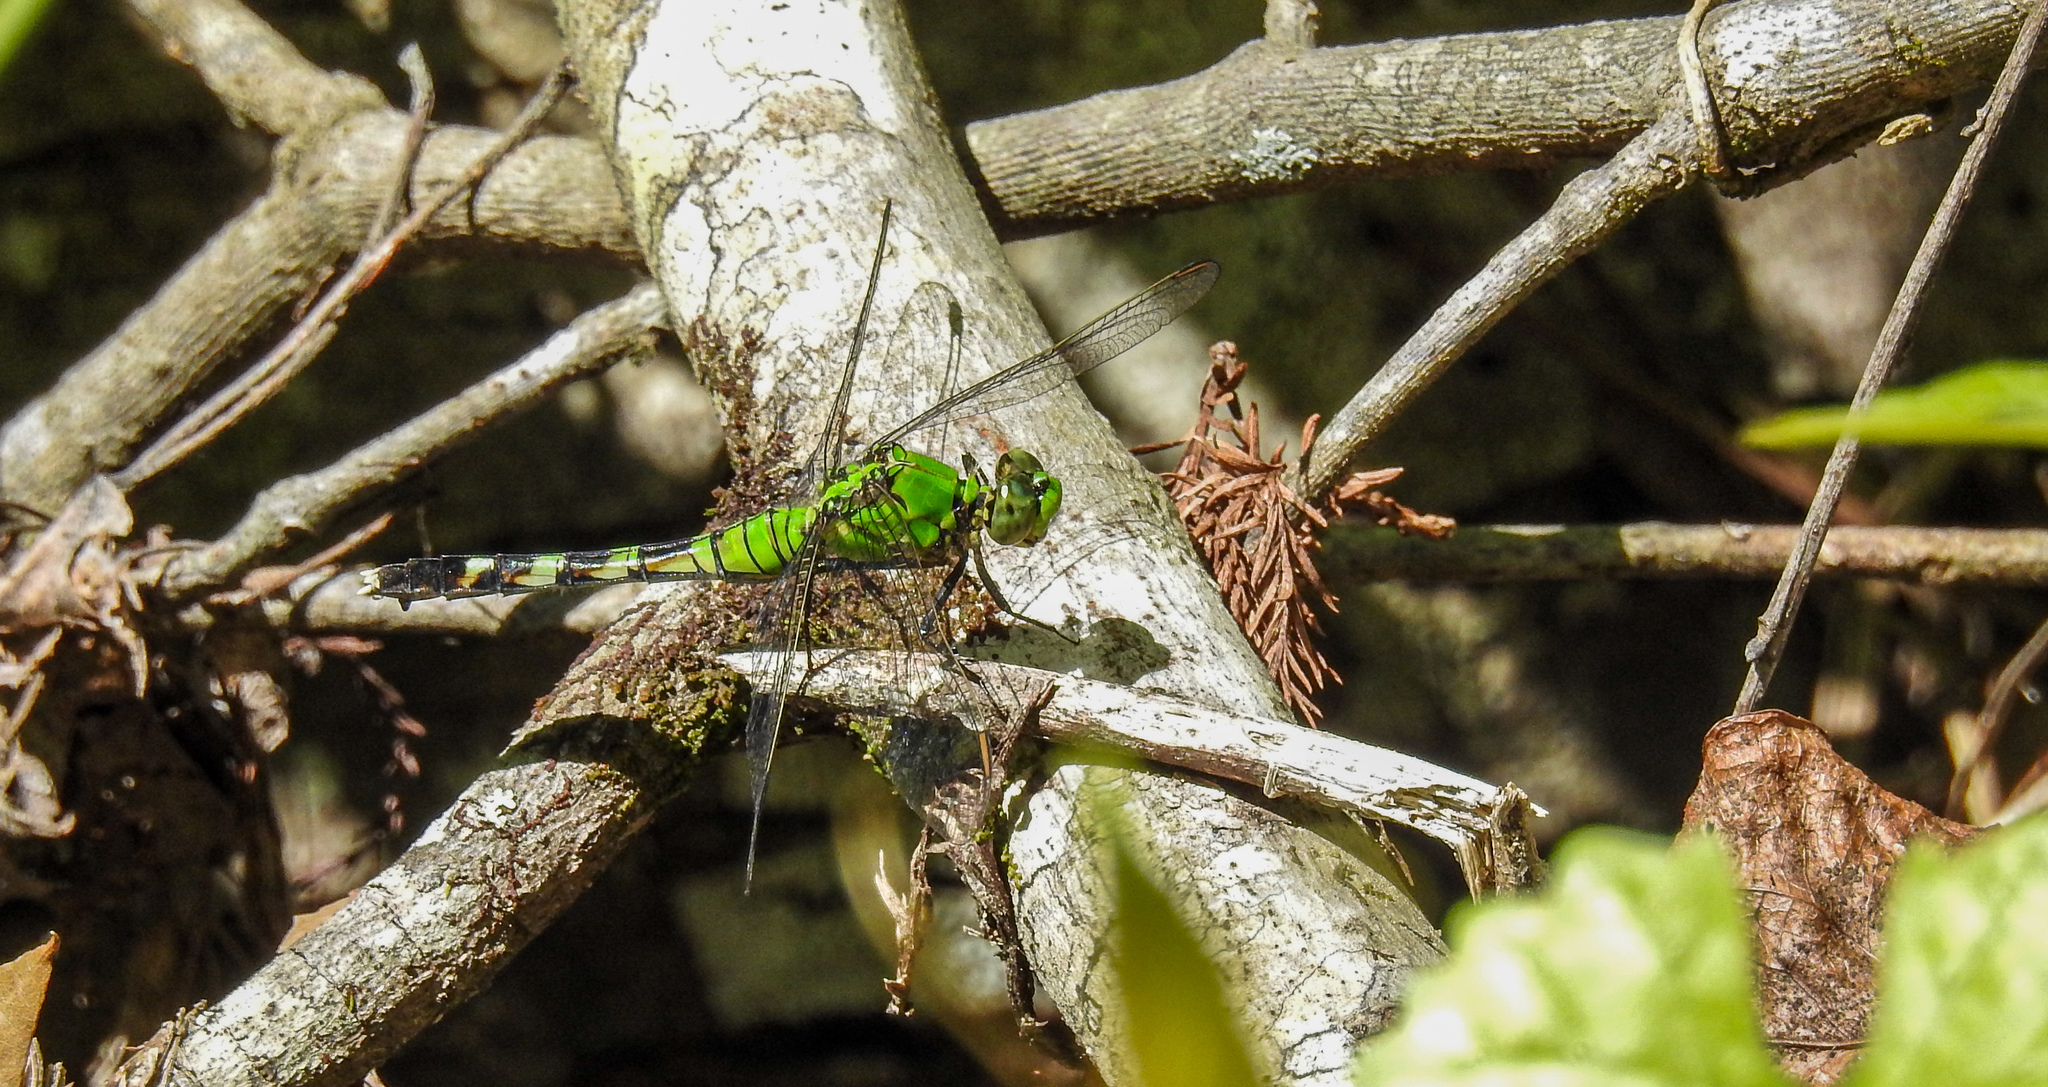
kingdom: Animalia
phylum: Arthropoda
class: Insecta
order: Odonata
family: Libellulidae
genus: Erythemis
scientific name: Erythemis simplicicollis
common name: Eastern pondhawk
